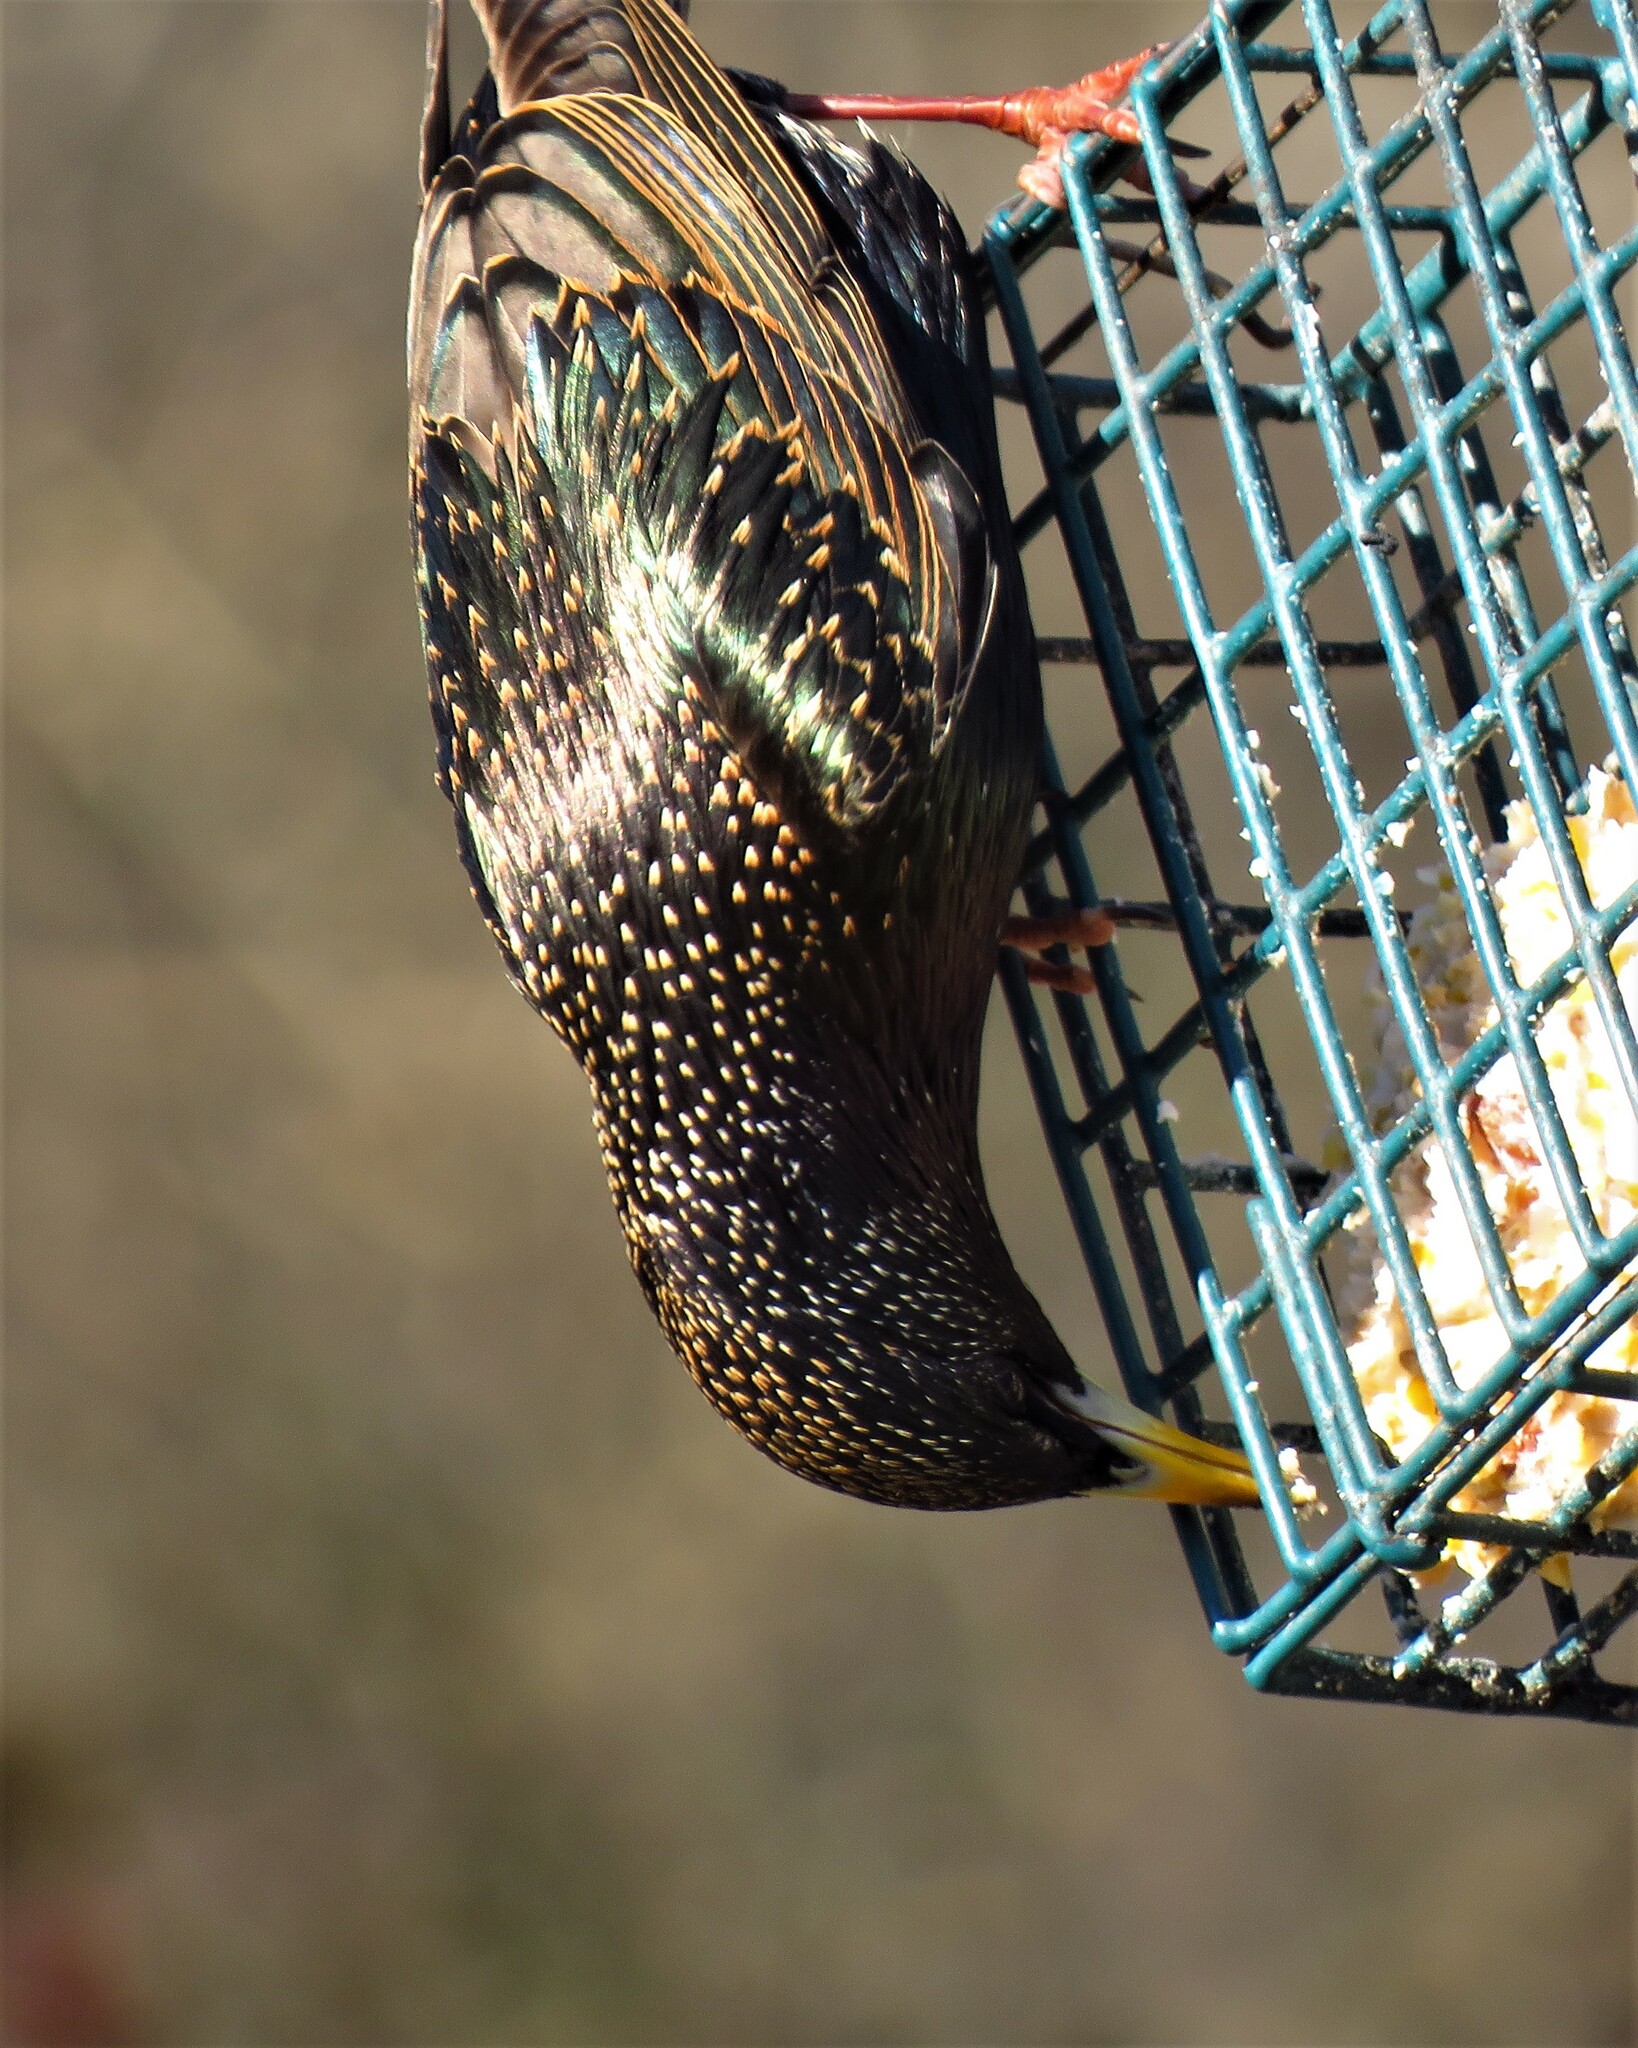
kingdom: Animalia
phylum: Chordata
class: Aves
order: Passeriformes
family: Sturnidae
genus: Sturnus
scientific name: Sturnus vulgaris
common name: Common starling
